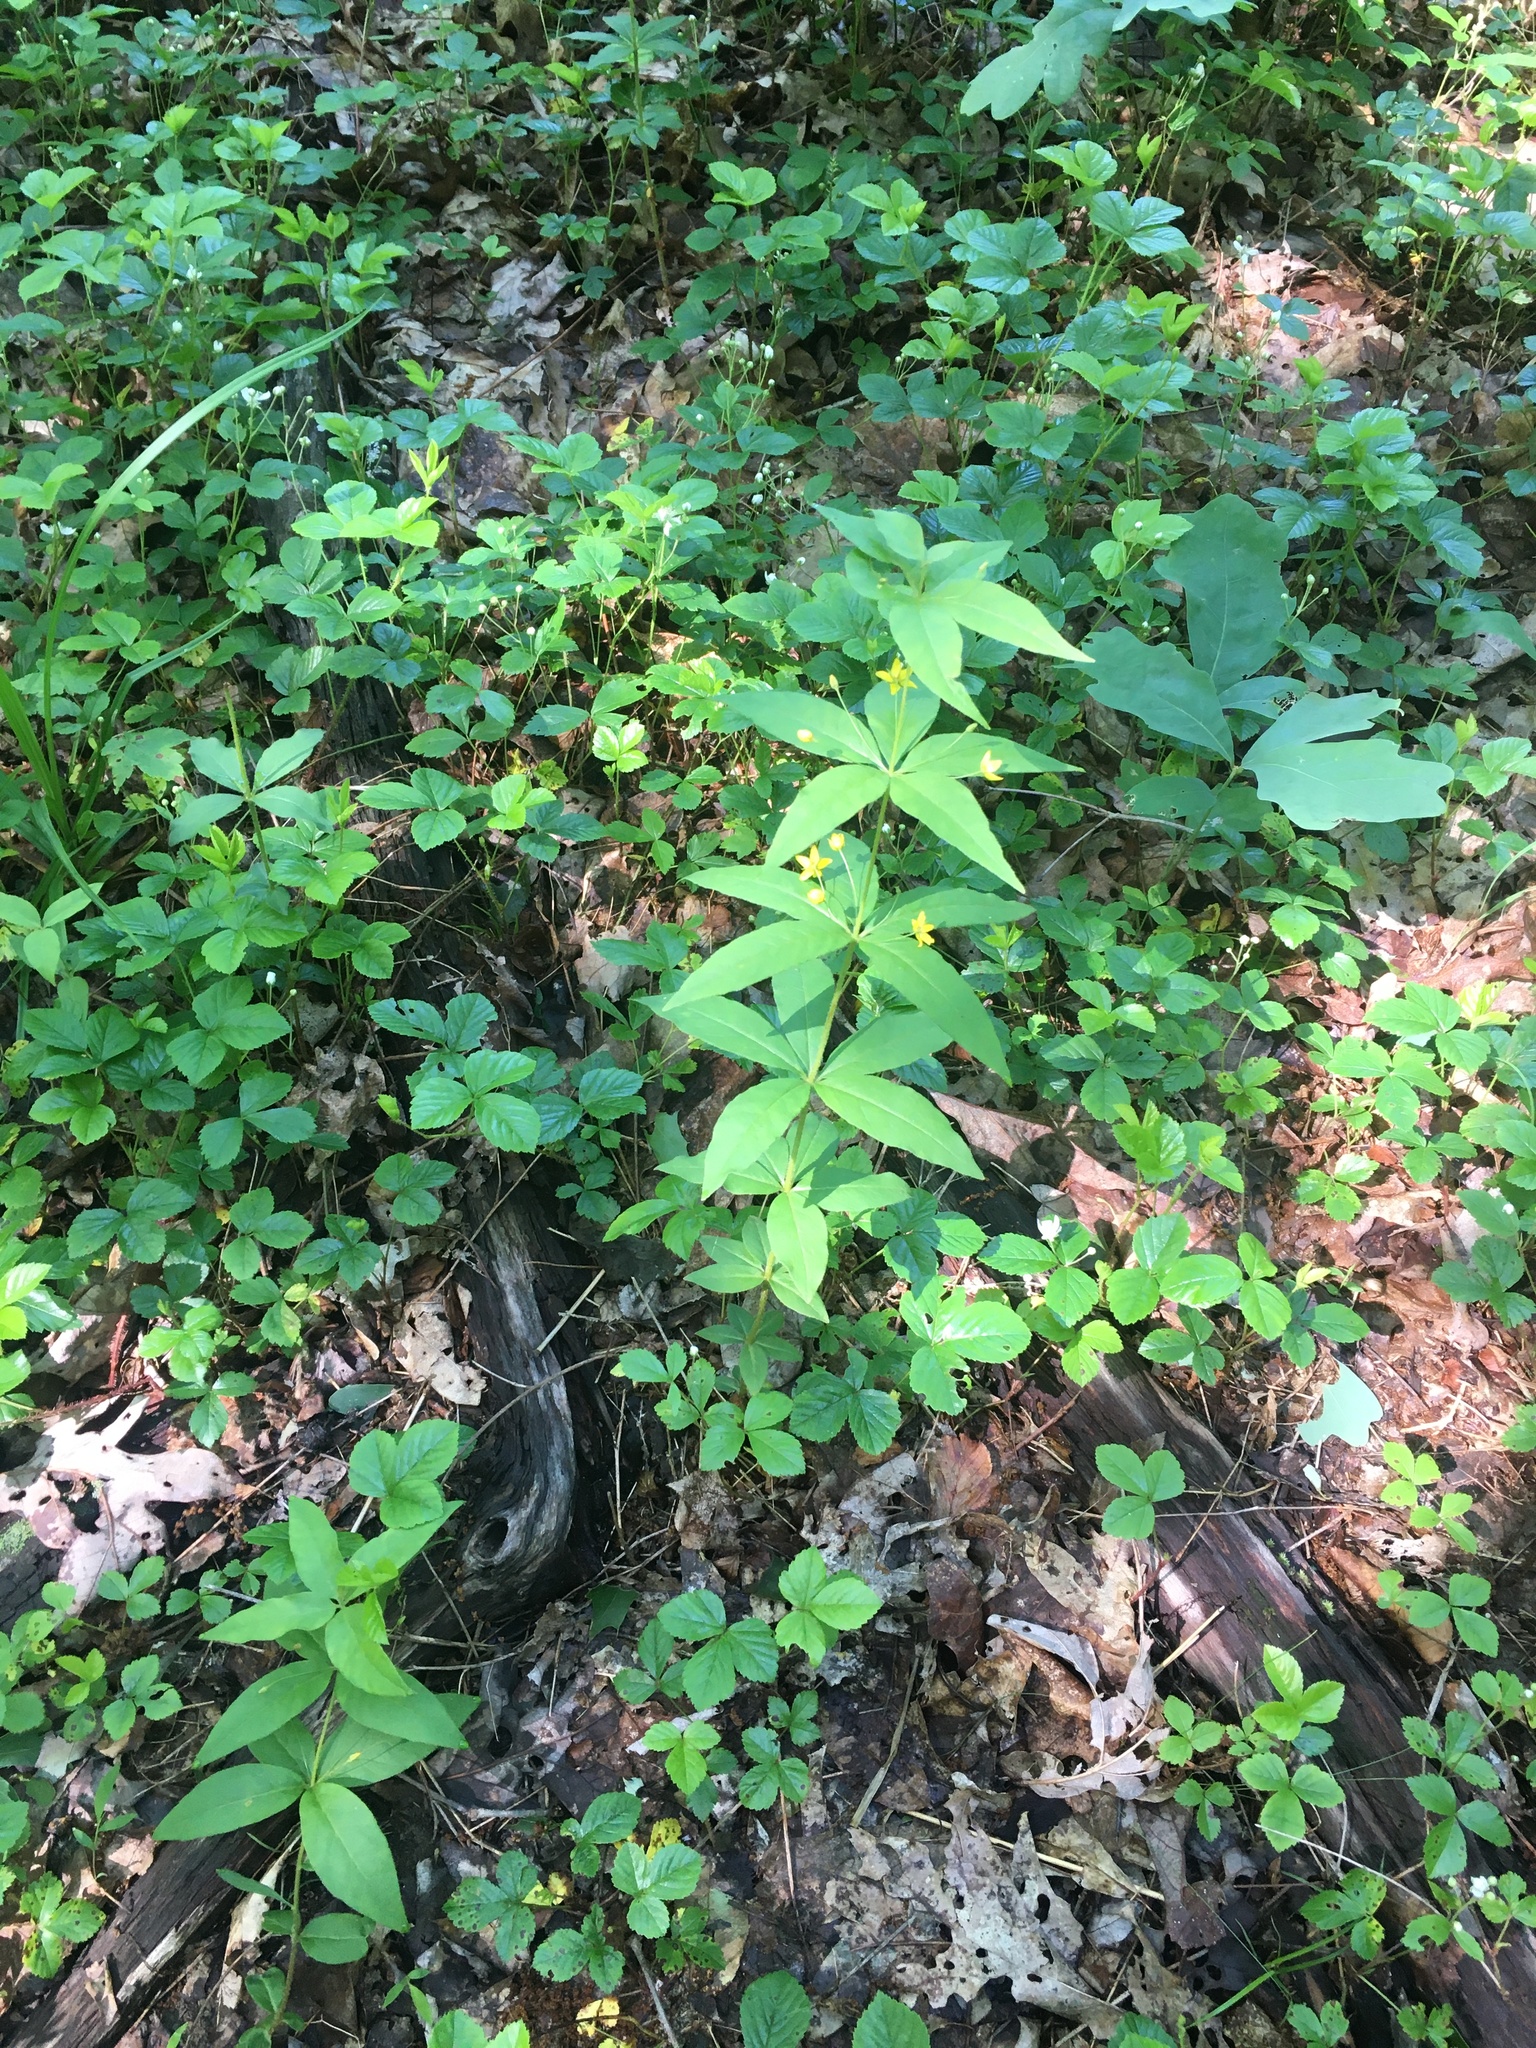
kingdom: Plantae
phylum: Tracheophyta
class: Magnoliopsida
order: Ericales
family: Primulaceae
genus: Lysimachia
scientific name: Lysimachia quadrifolia
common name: Whorled loosestrife
